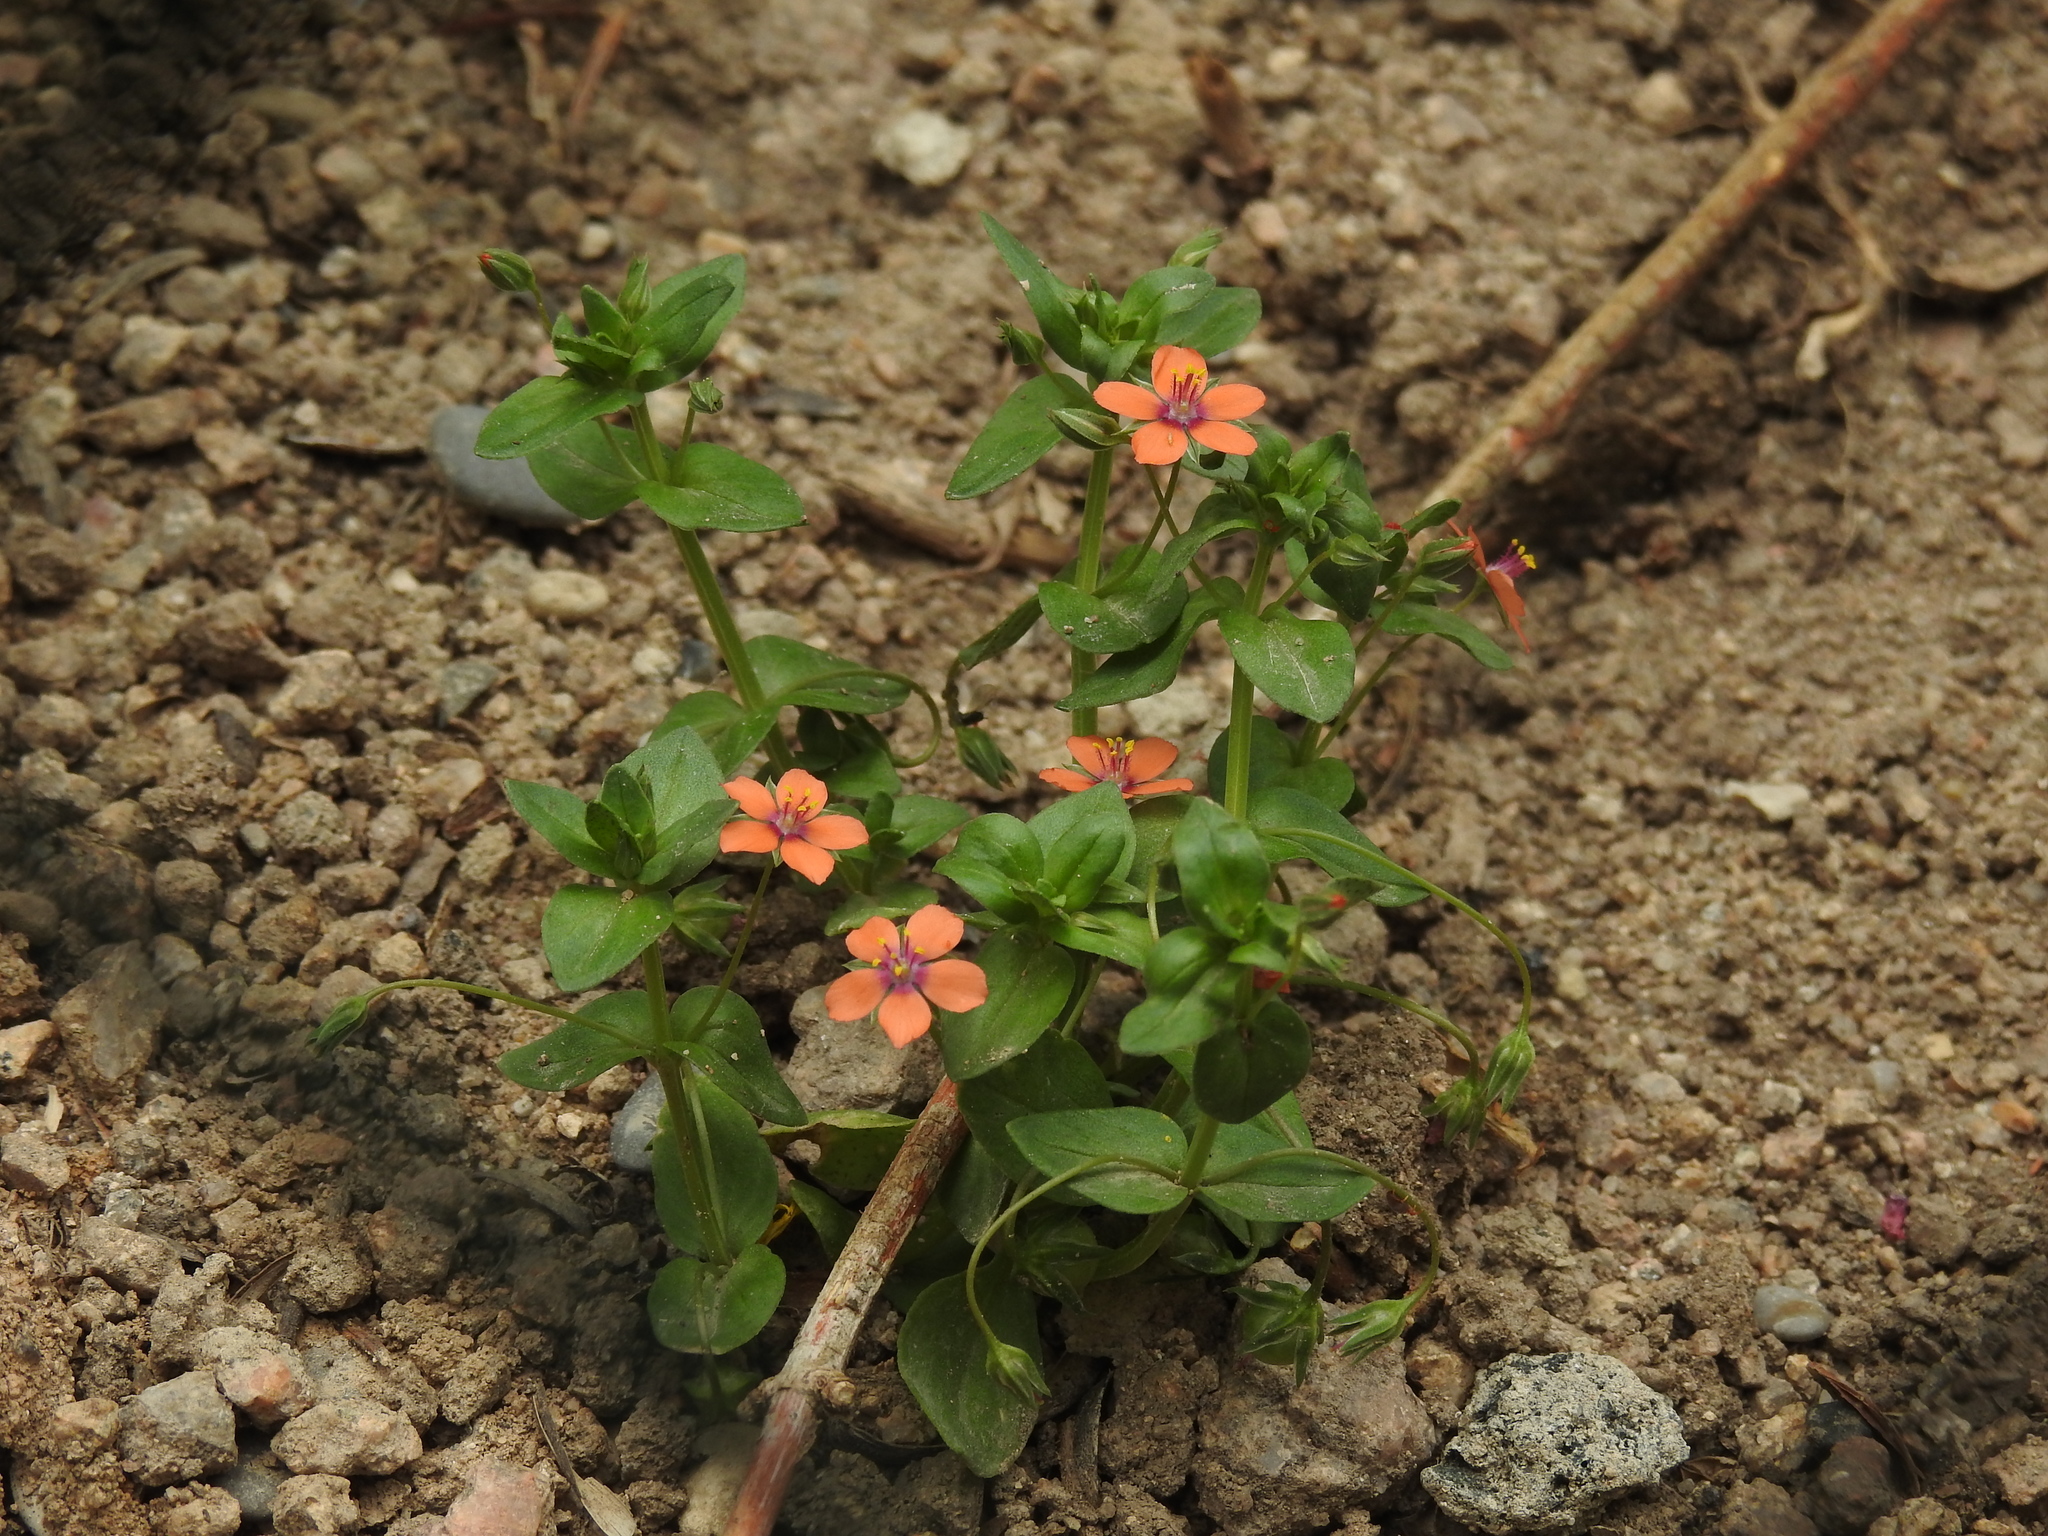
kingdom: Plantae
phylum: Tracheophyta
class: Magnoliopsida
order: Ericales
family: Primulaceae
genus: Lysimachia
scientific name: Lysimachia arvensis
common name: Scarlet pimpernel
